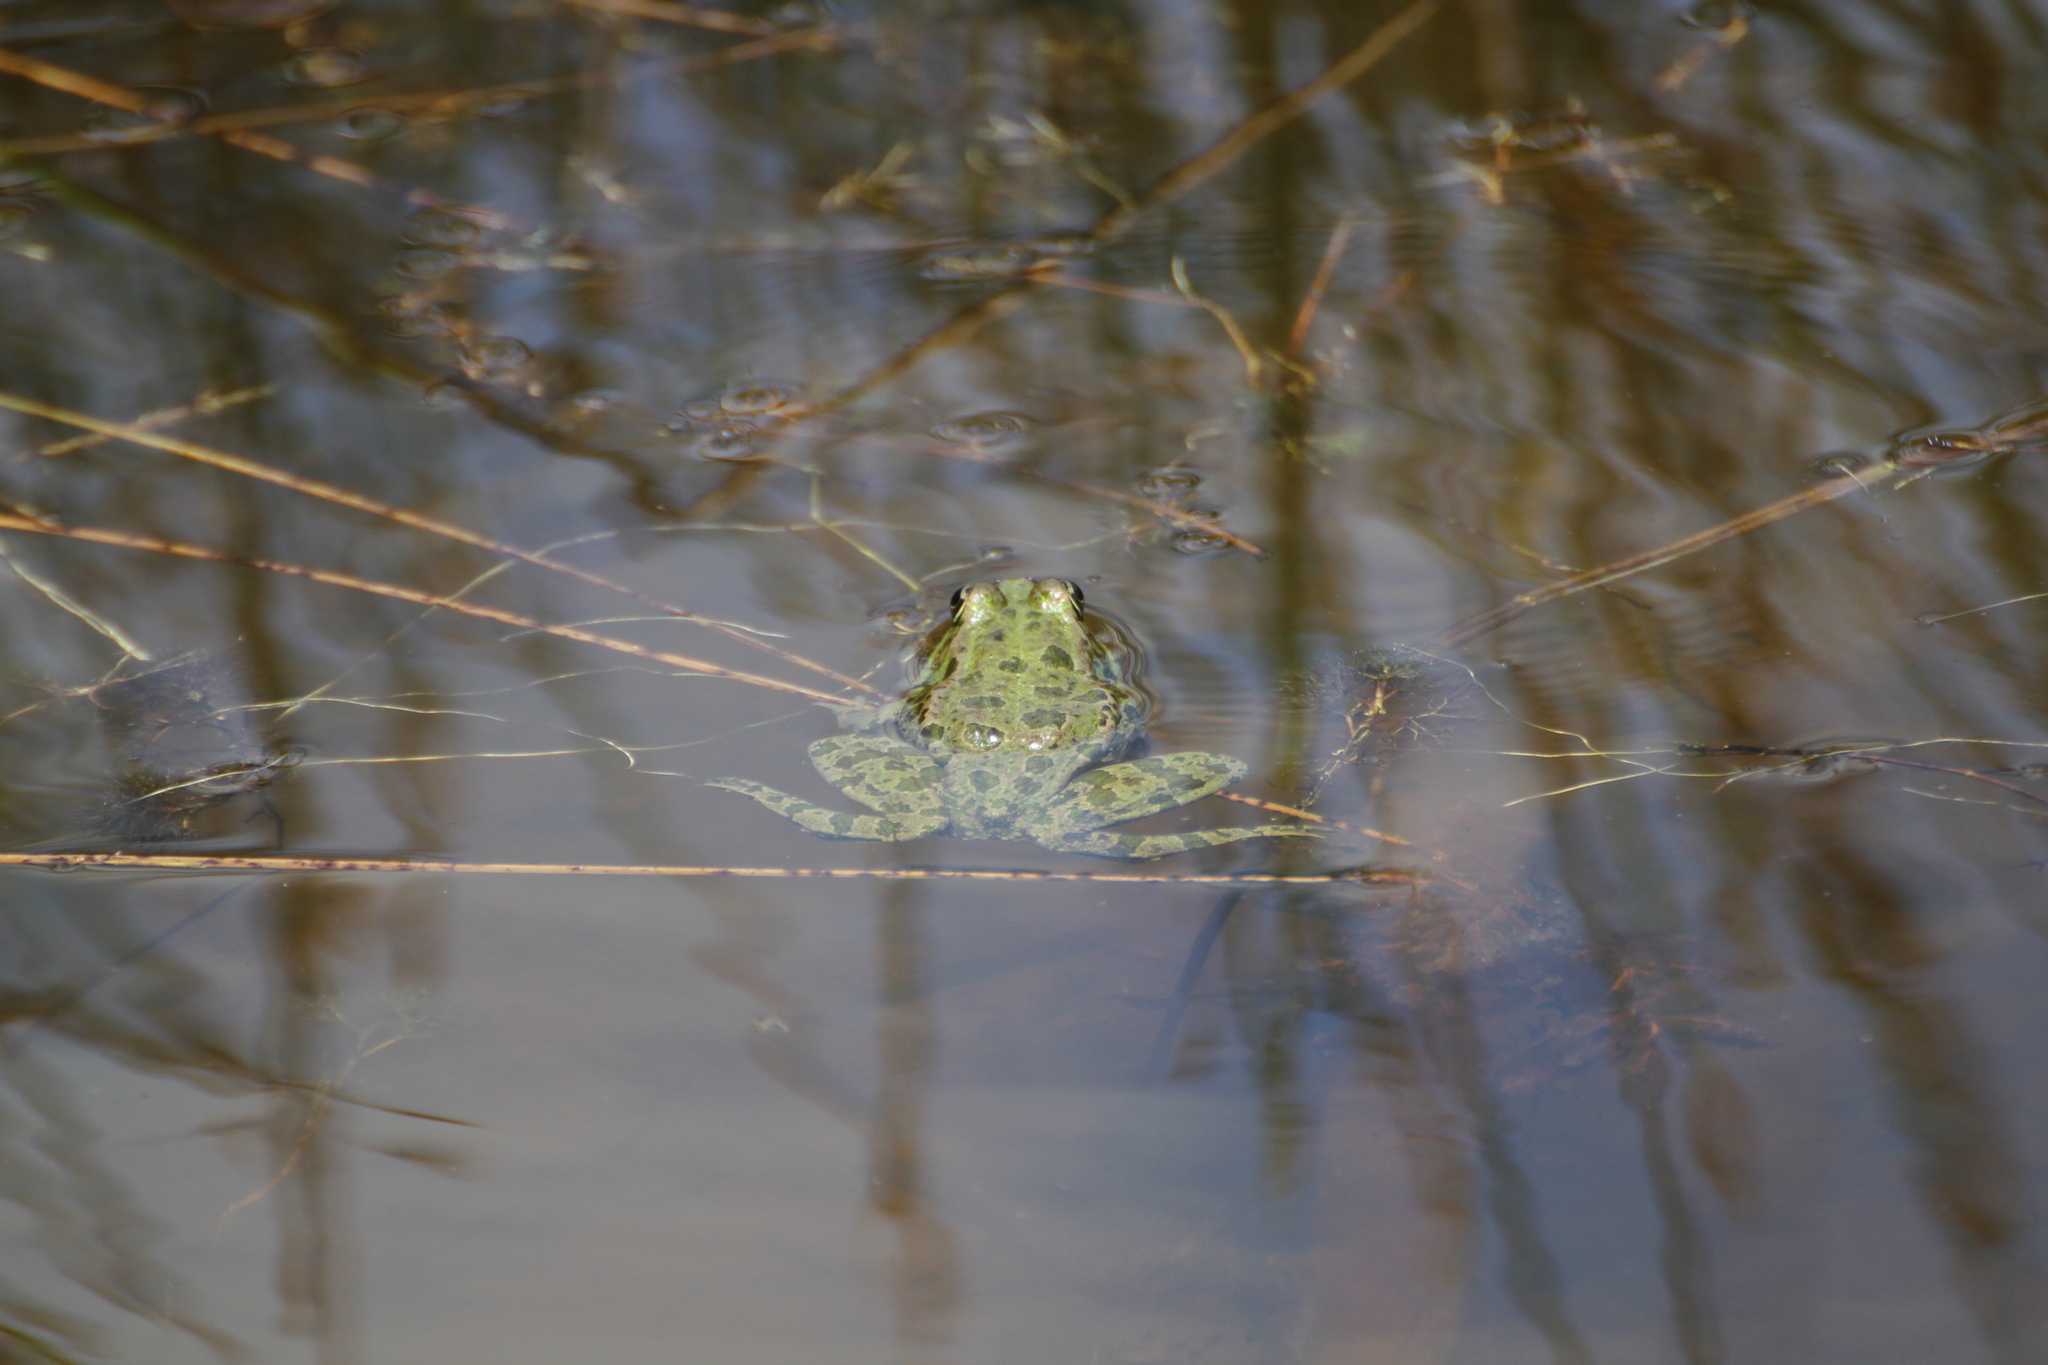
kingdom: Animalia
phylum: Chordata
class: Amphibia
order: Anura
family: Ranidae
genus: Pelophylax
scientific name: Pelophylax
